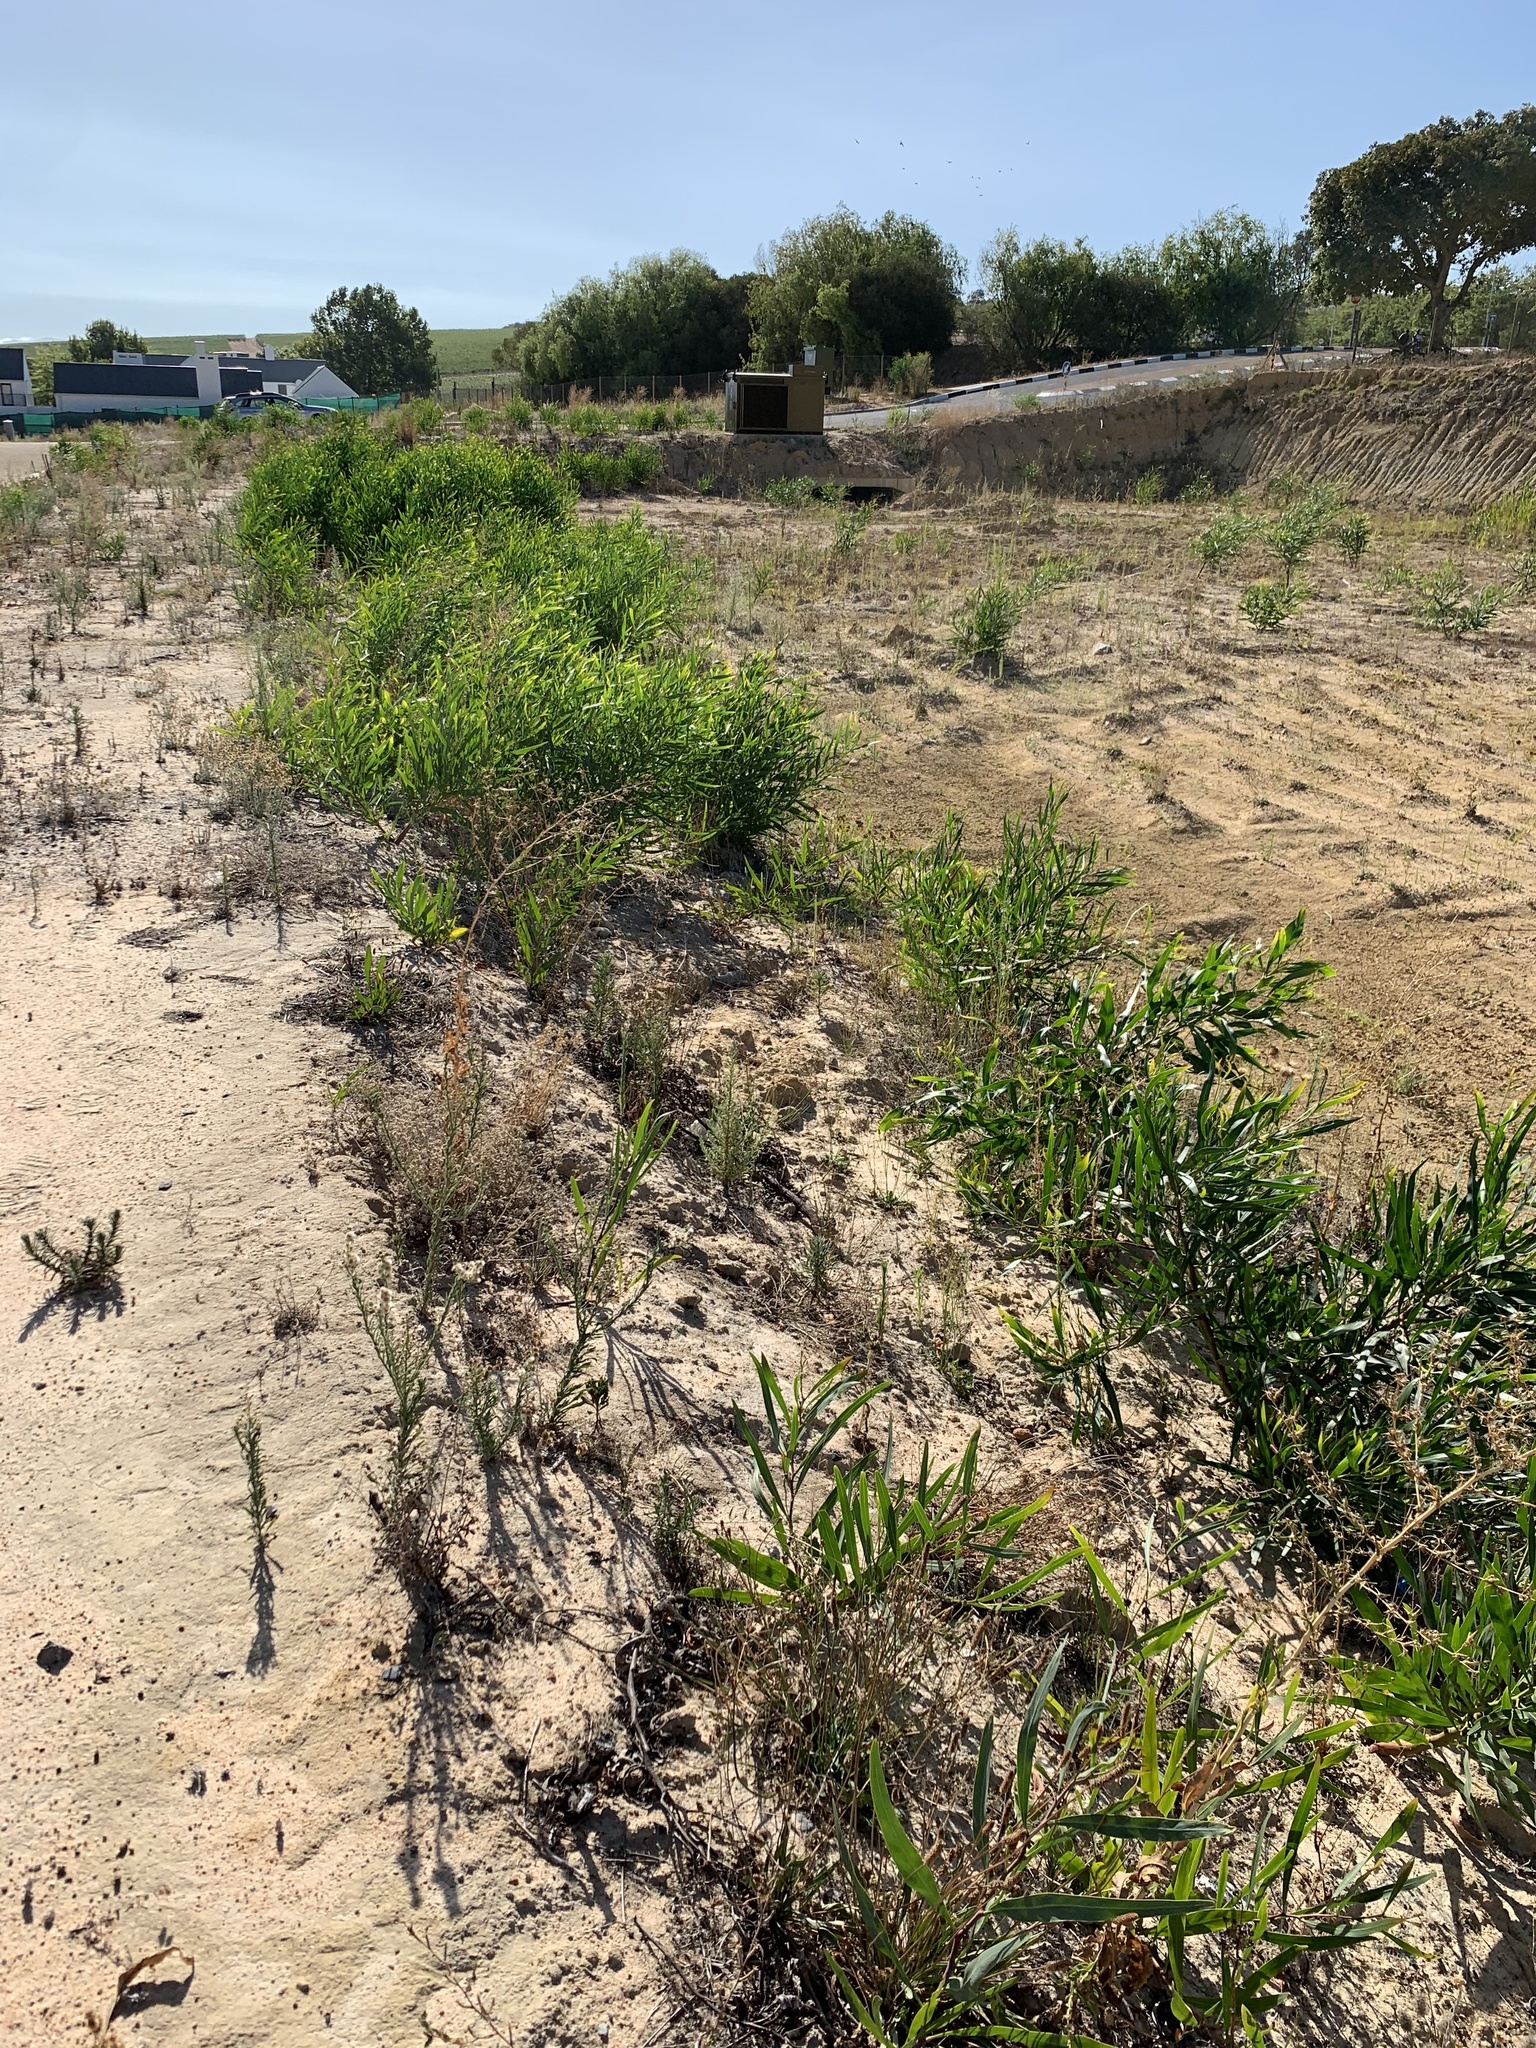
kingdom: Plantae
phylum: Tracheophyta
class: Magnoliopsida
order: Fabales
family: Fabaceae
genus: Acacia
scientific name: Acacia saligna
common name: Orange wattle
